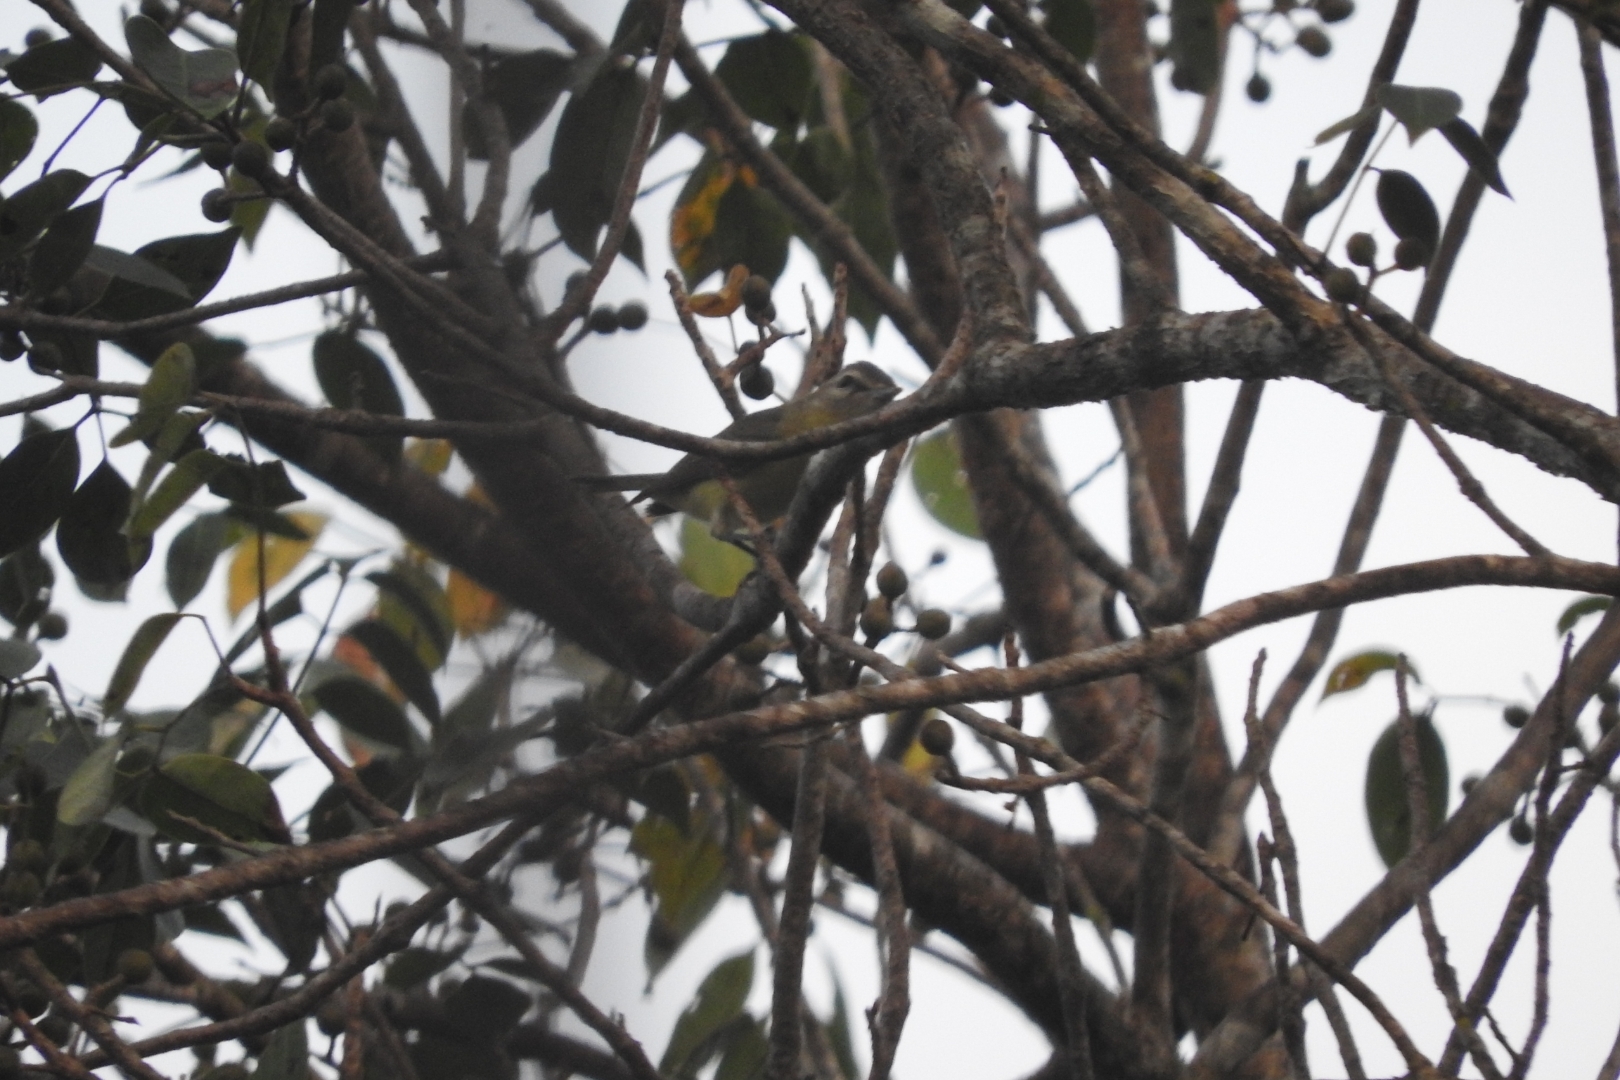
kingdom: Animalia
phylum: Chordata
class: Aves
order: Passeriformes
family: Vireonidae
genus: Vireo
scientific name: Vireo philadelphicus
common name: Philadelphia vireo
